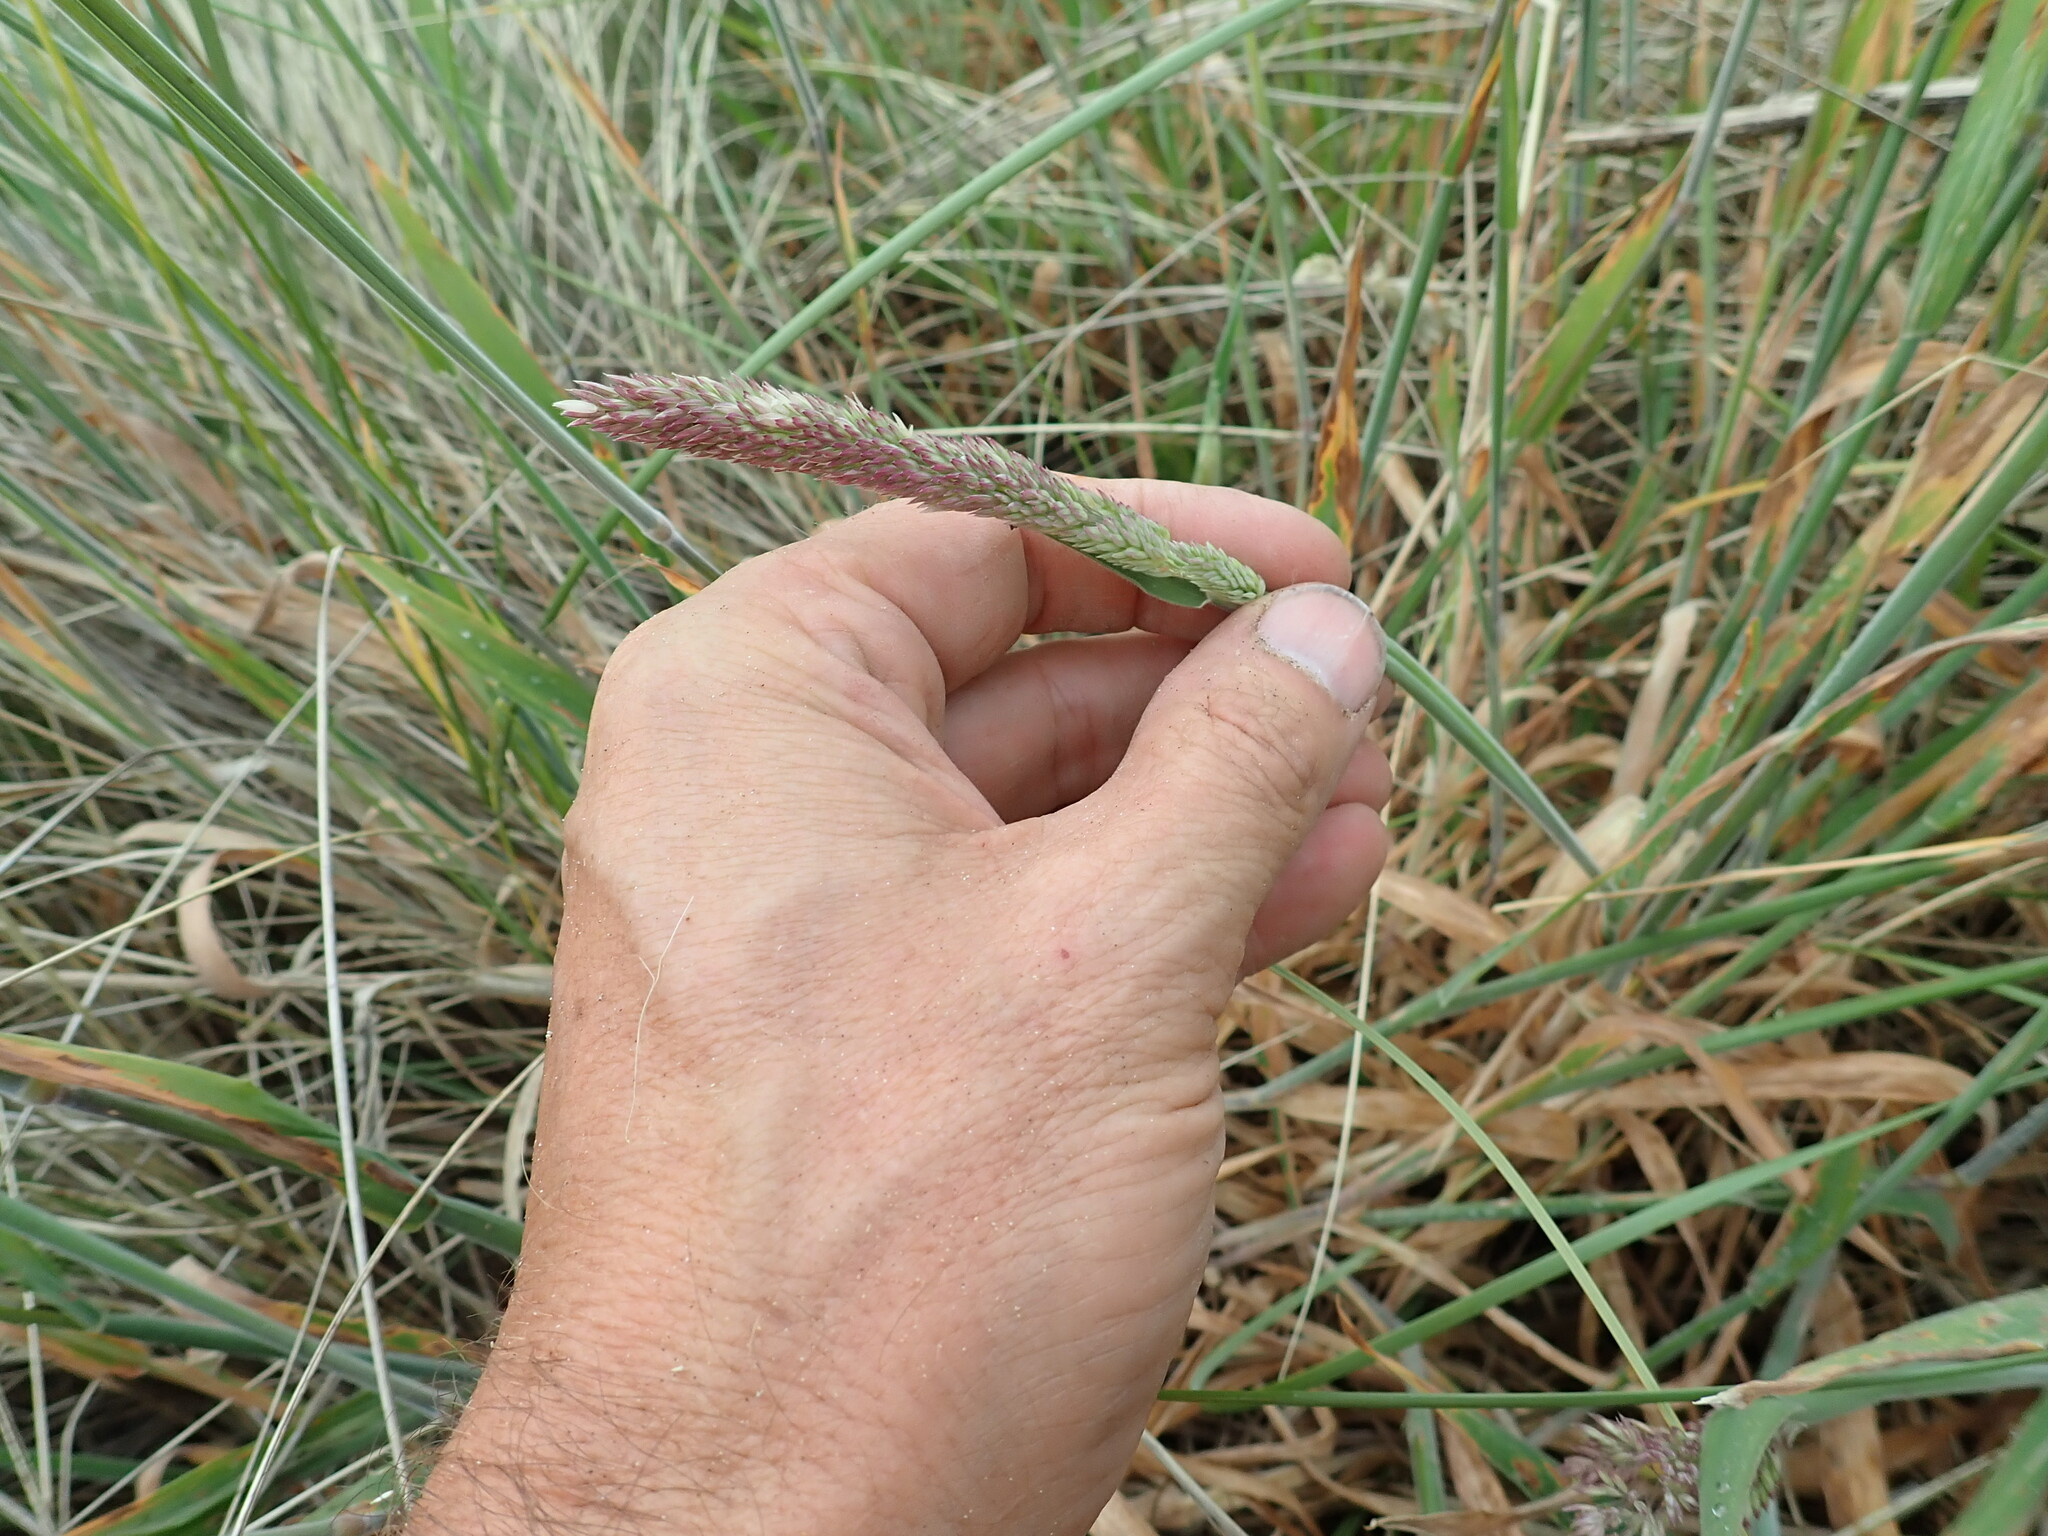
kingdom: Plantae
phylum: Tracheophyta
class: Liliopsida
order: Poales
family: Poaceae
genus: Holcus
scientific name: Holcus lanatus
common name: Yorkshire-fog
